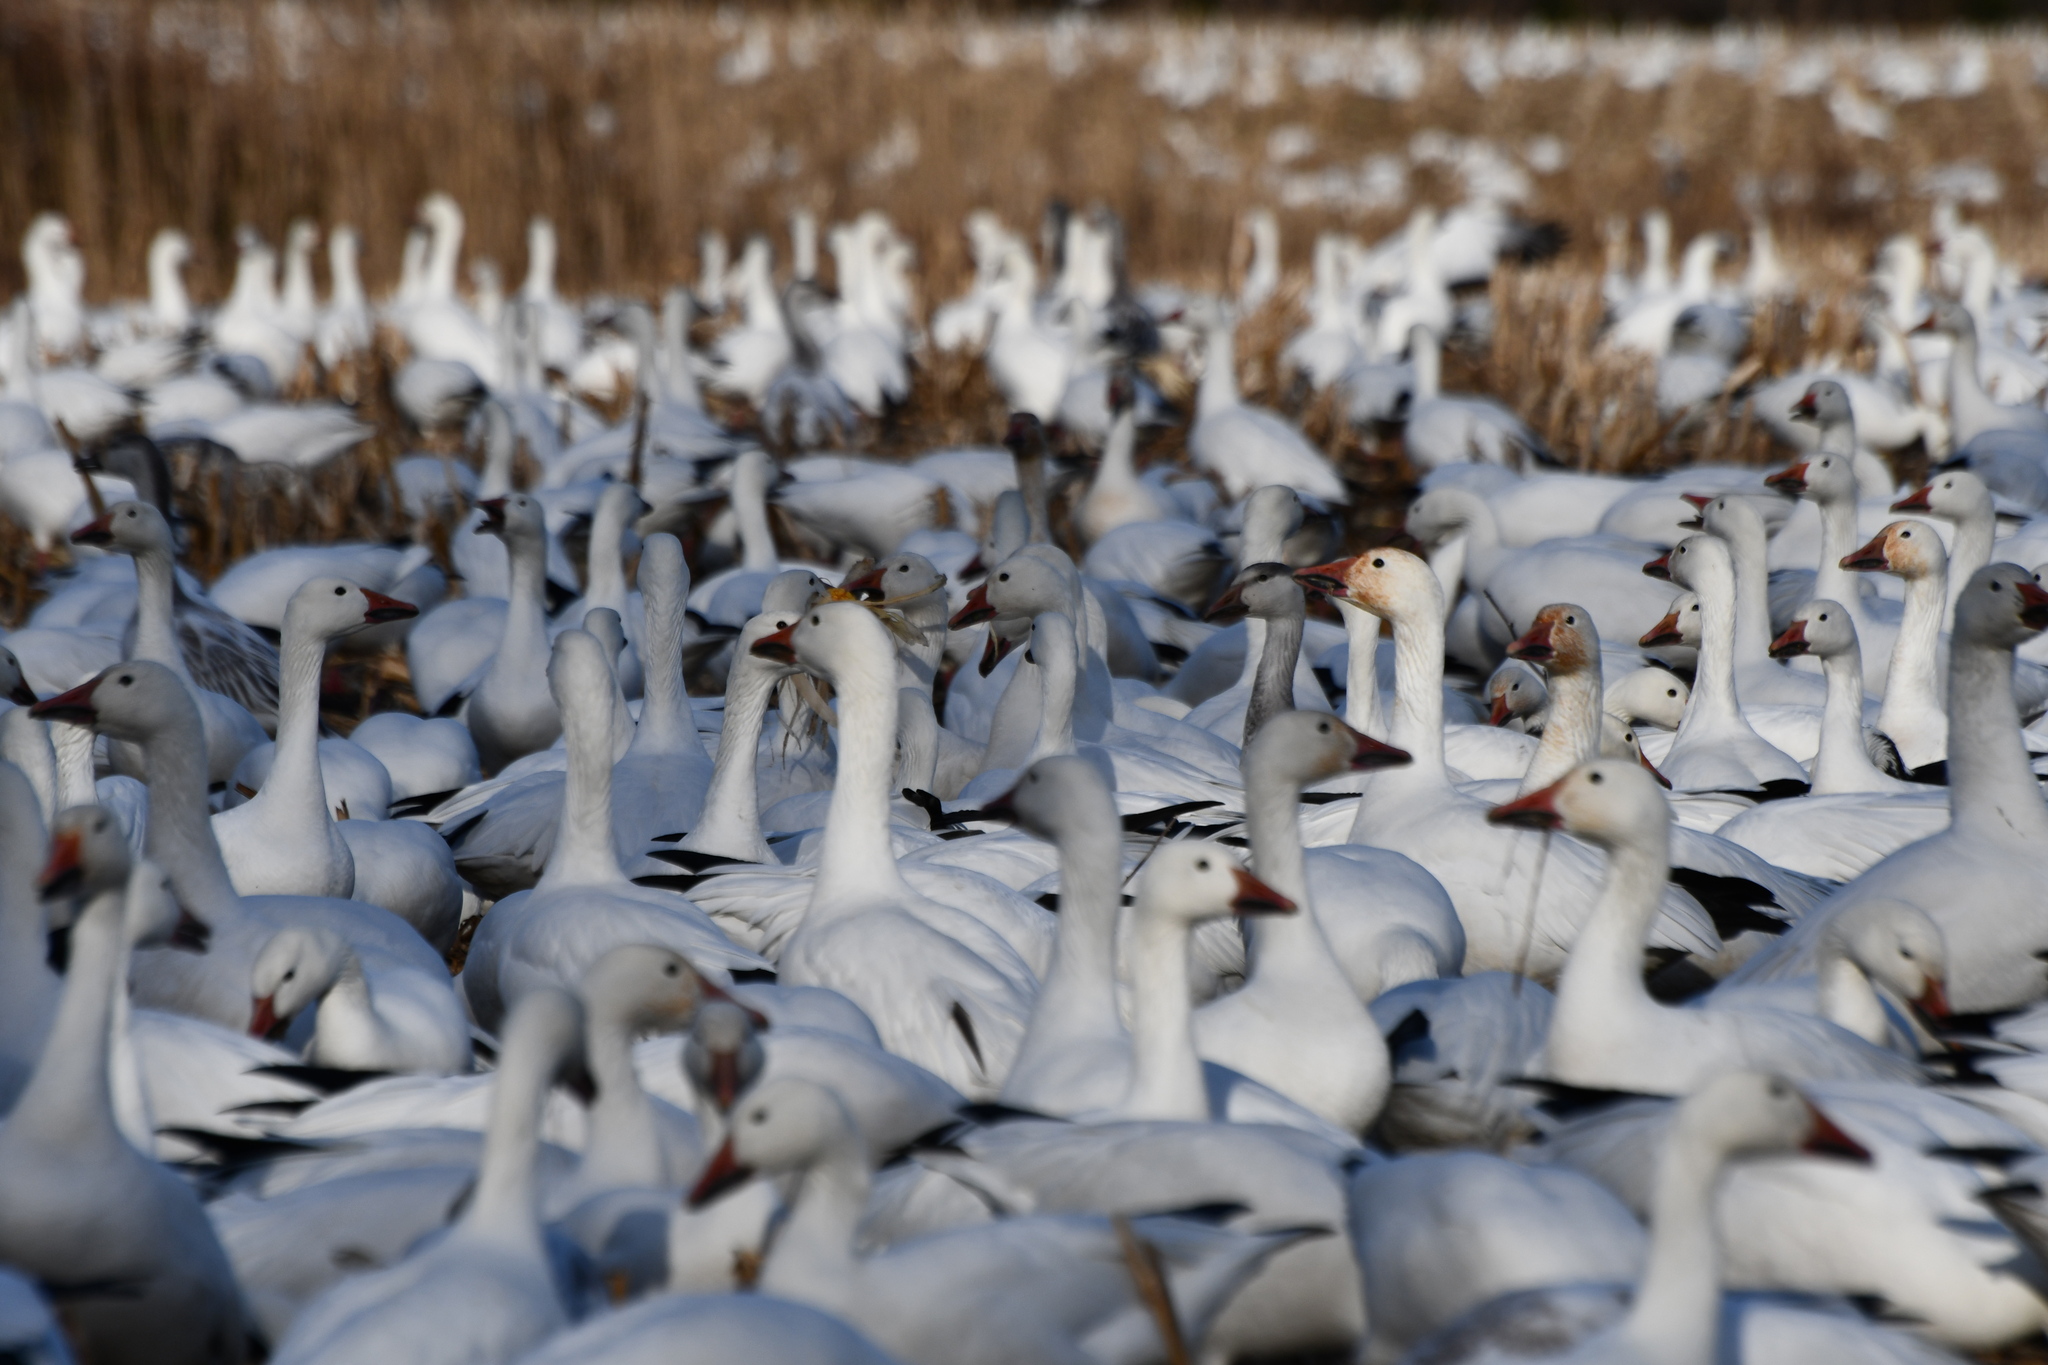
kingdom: Animalia
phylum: Chordata
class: Aves
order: Anseriformes
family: Anatidae
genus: Anser
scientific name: Anser caerulescens
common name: Snow goose
